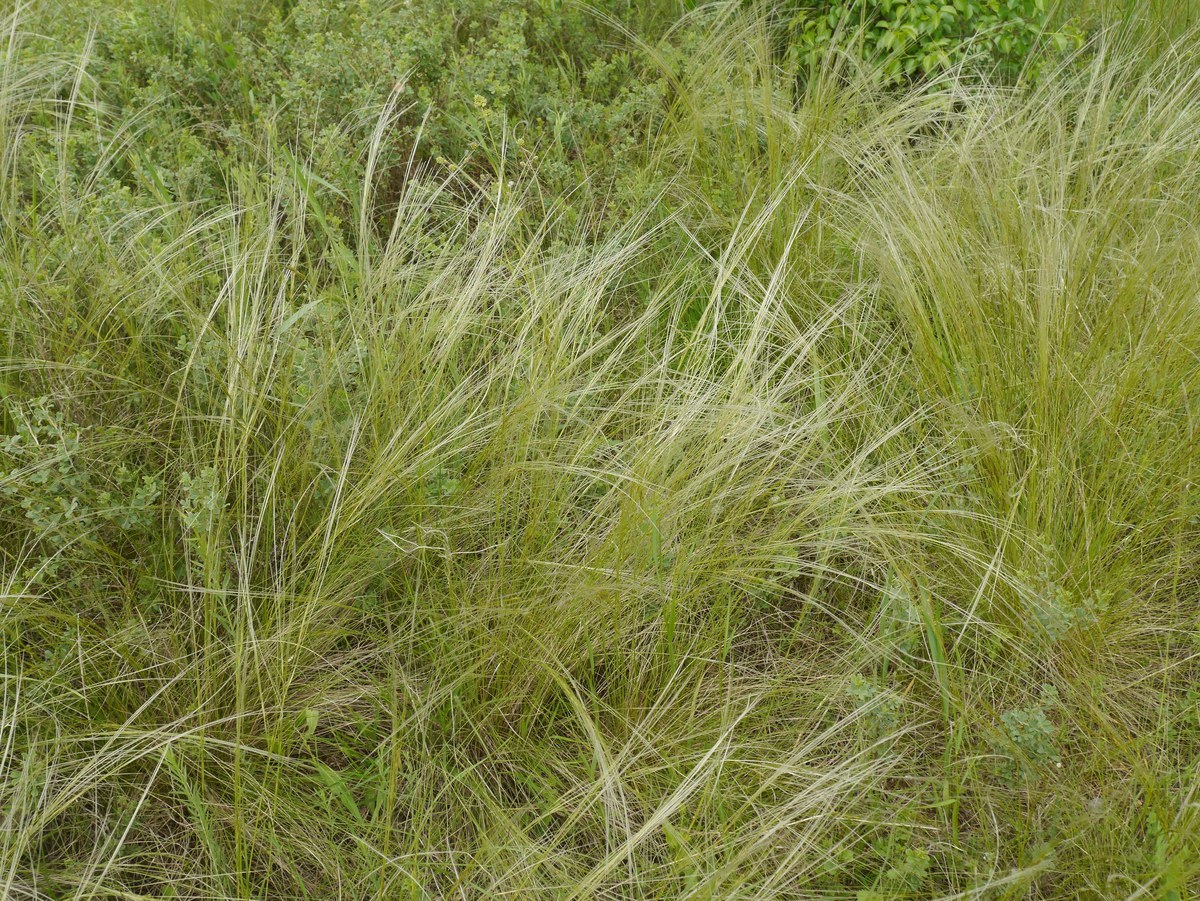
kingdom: Plantae
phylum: Tracheophyta
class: Liliopsida
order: Poales
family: Poaceae
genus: Stipa
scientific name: Stipa lessingiana
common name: Needle grass
